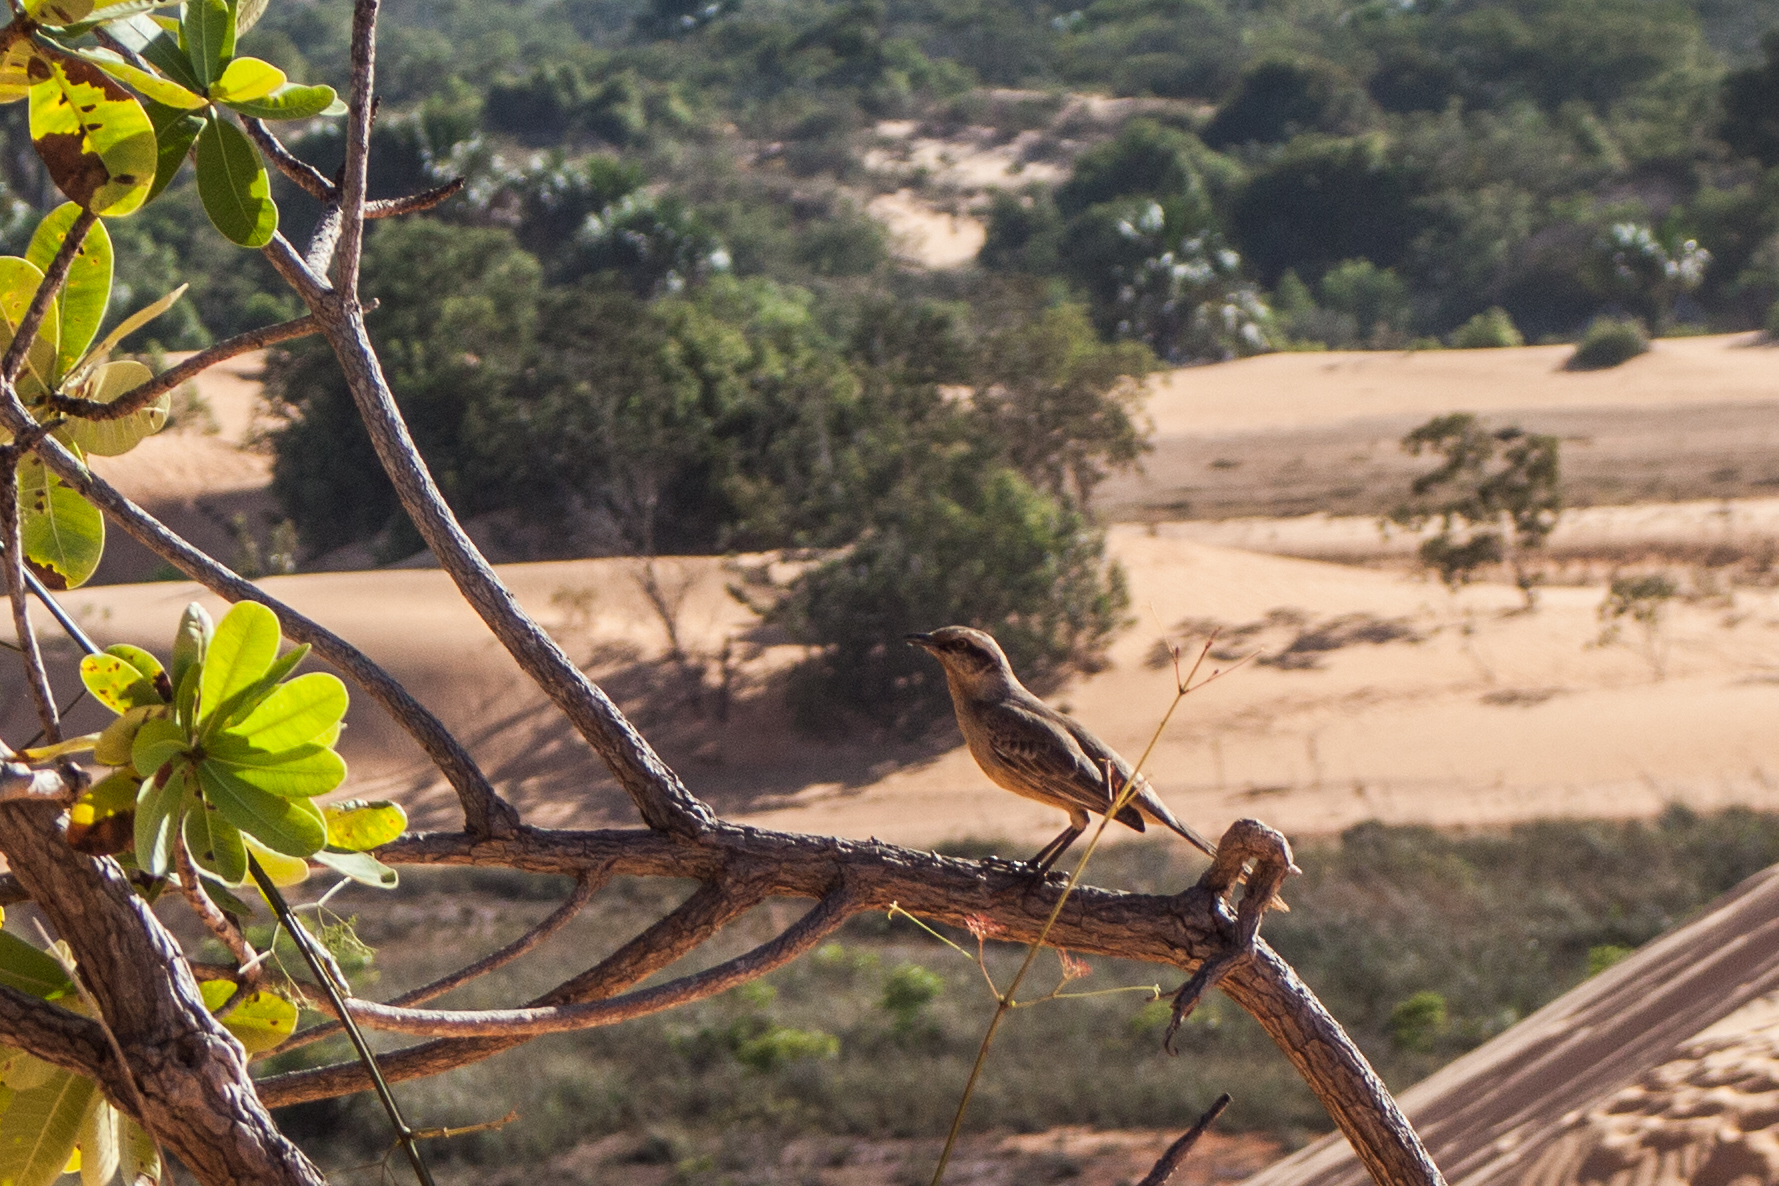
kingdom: Animalia
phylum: Chordata
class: Aves
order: Passeriformes
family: Mimidae
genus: Mimus
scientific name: Mimus saturninus
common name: Chalk-browed mockingbird
